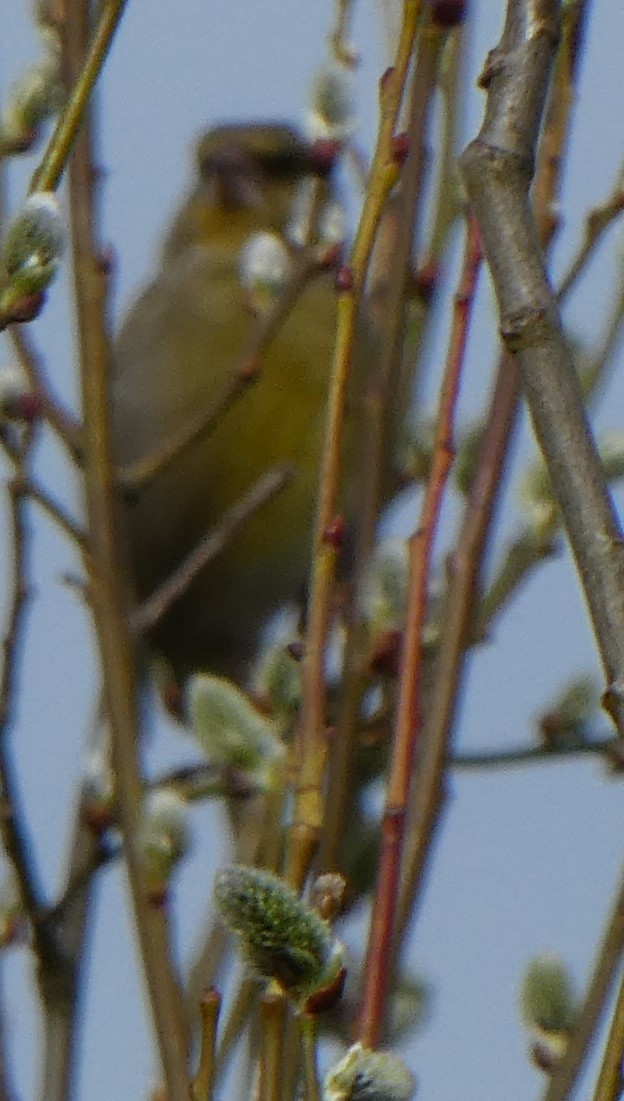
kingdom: Plantae
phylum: Tracheophyta
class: Liliopsida
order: Poales
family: Poaceae
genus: Chloris
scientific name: Chloris chloris
